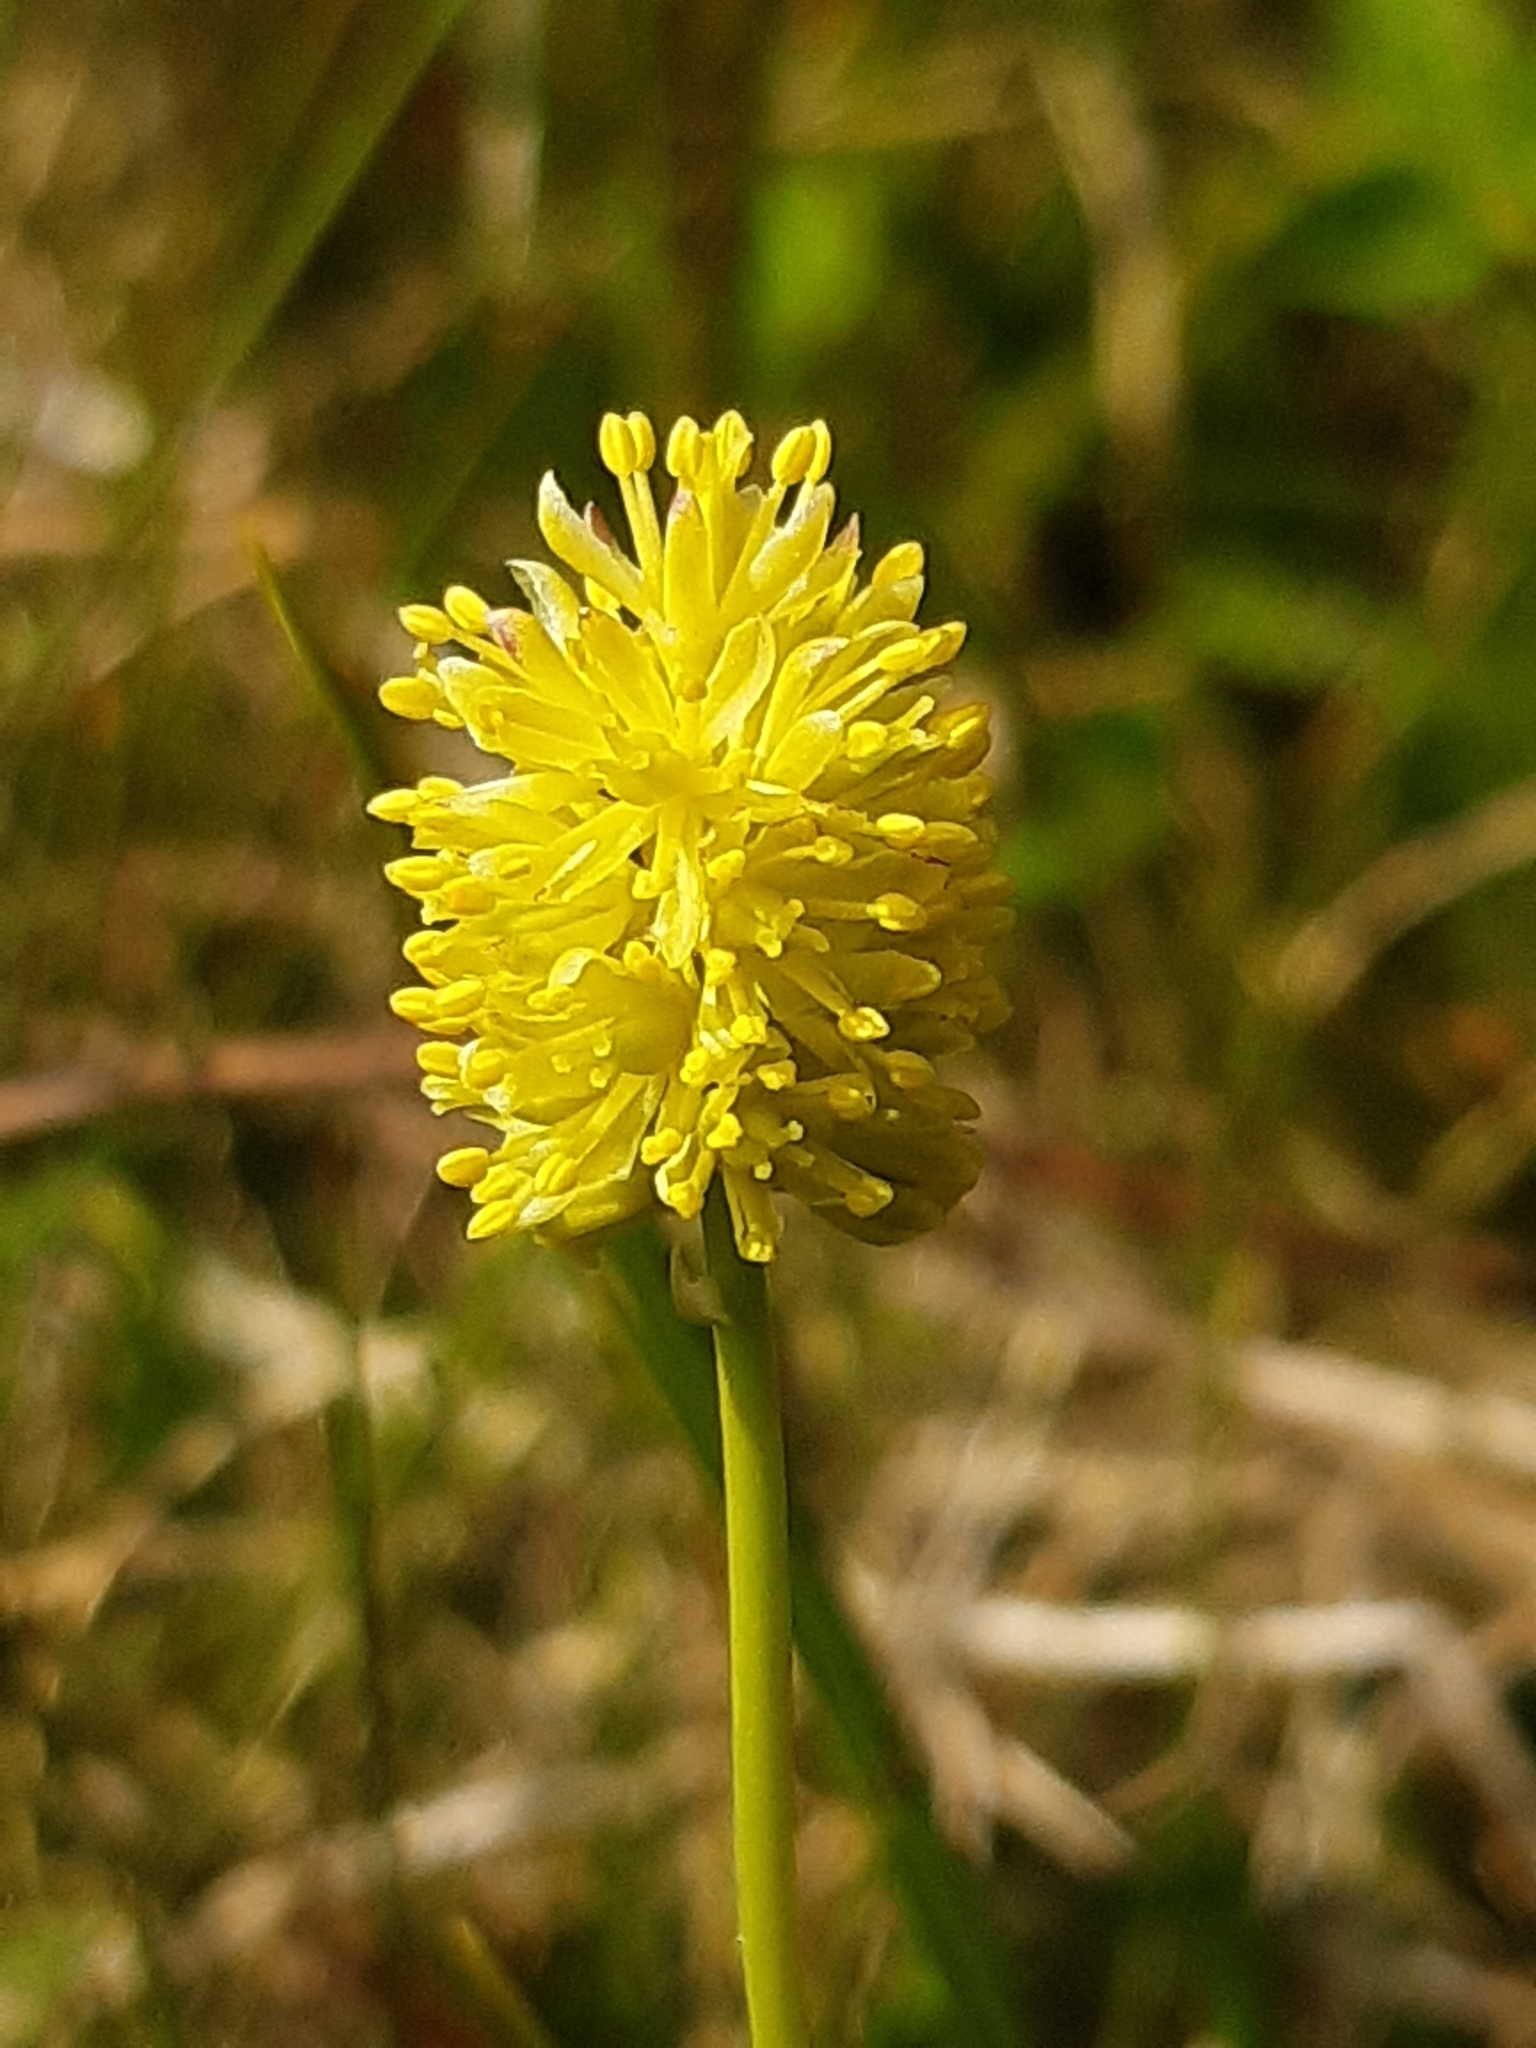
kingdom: Plantae
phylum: Tracheophyta
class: Liliopsida
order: Alismatales
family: Tofieldiaceae
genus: Tofieldia
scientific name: Tofieldia calyculata
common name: German-asphodel
